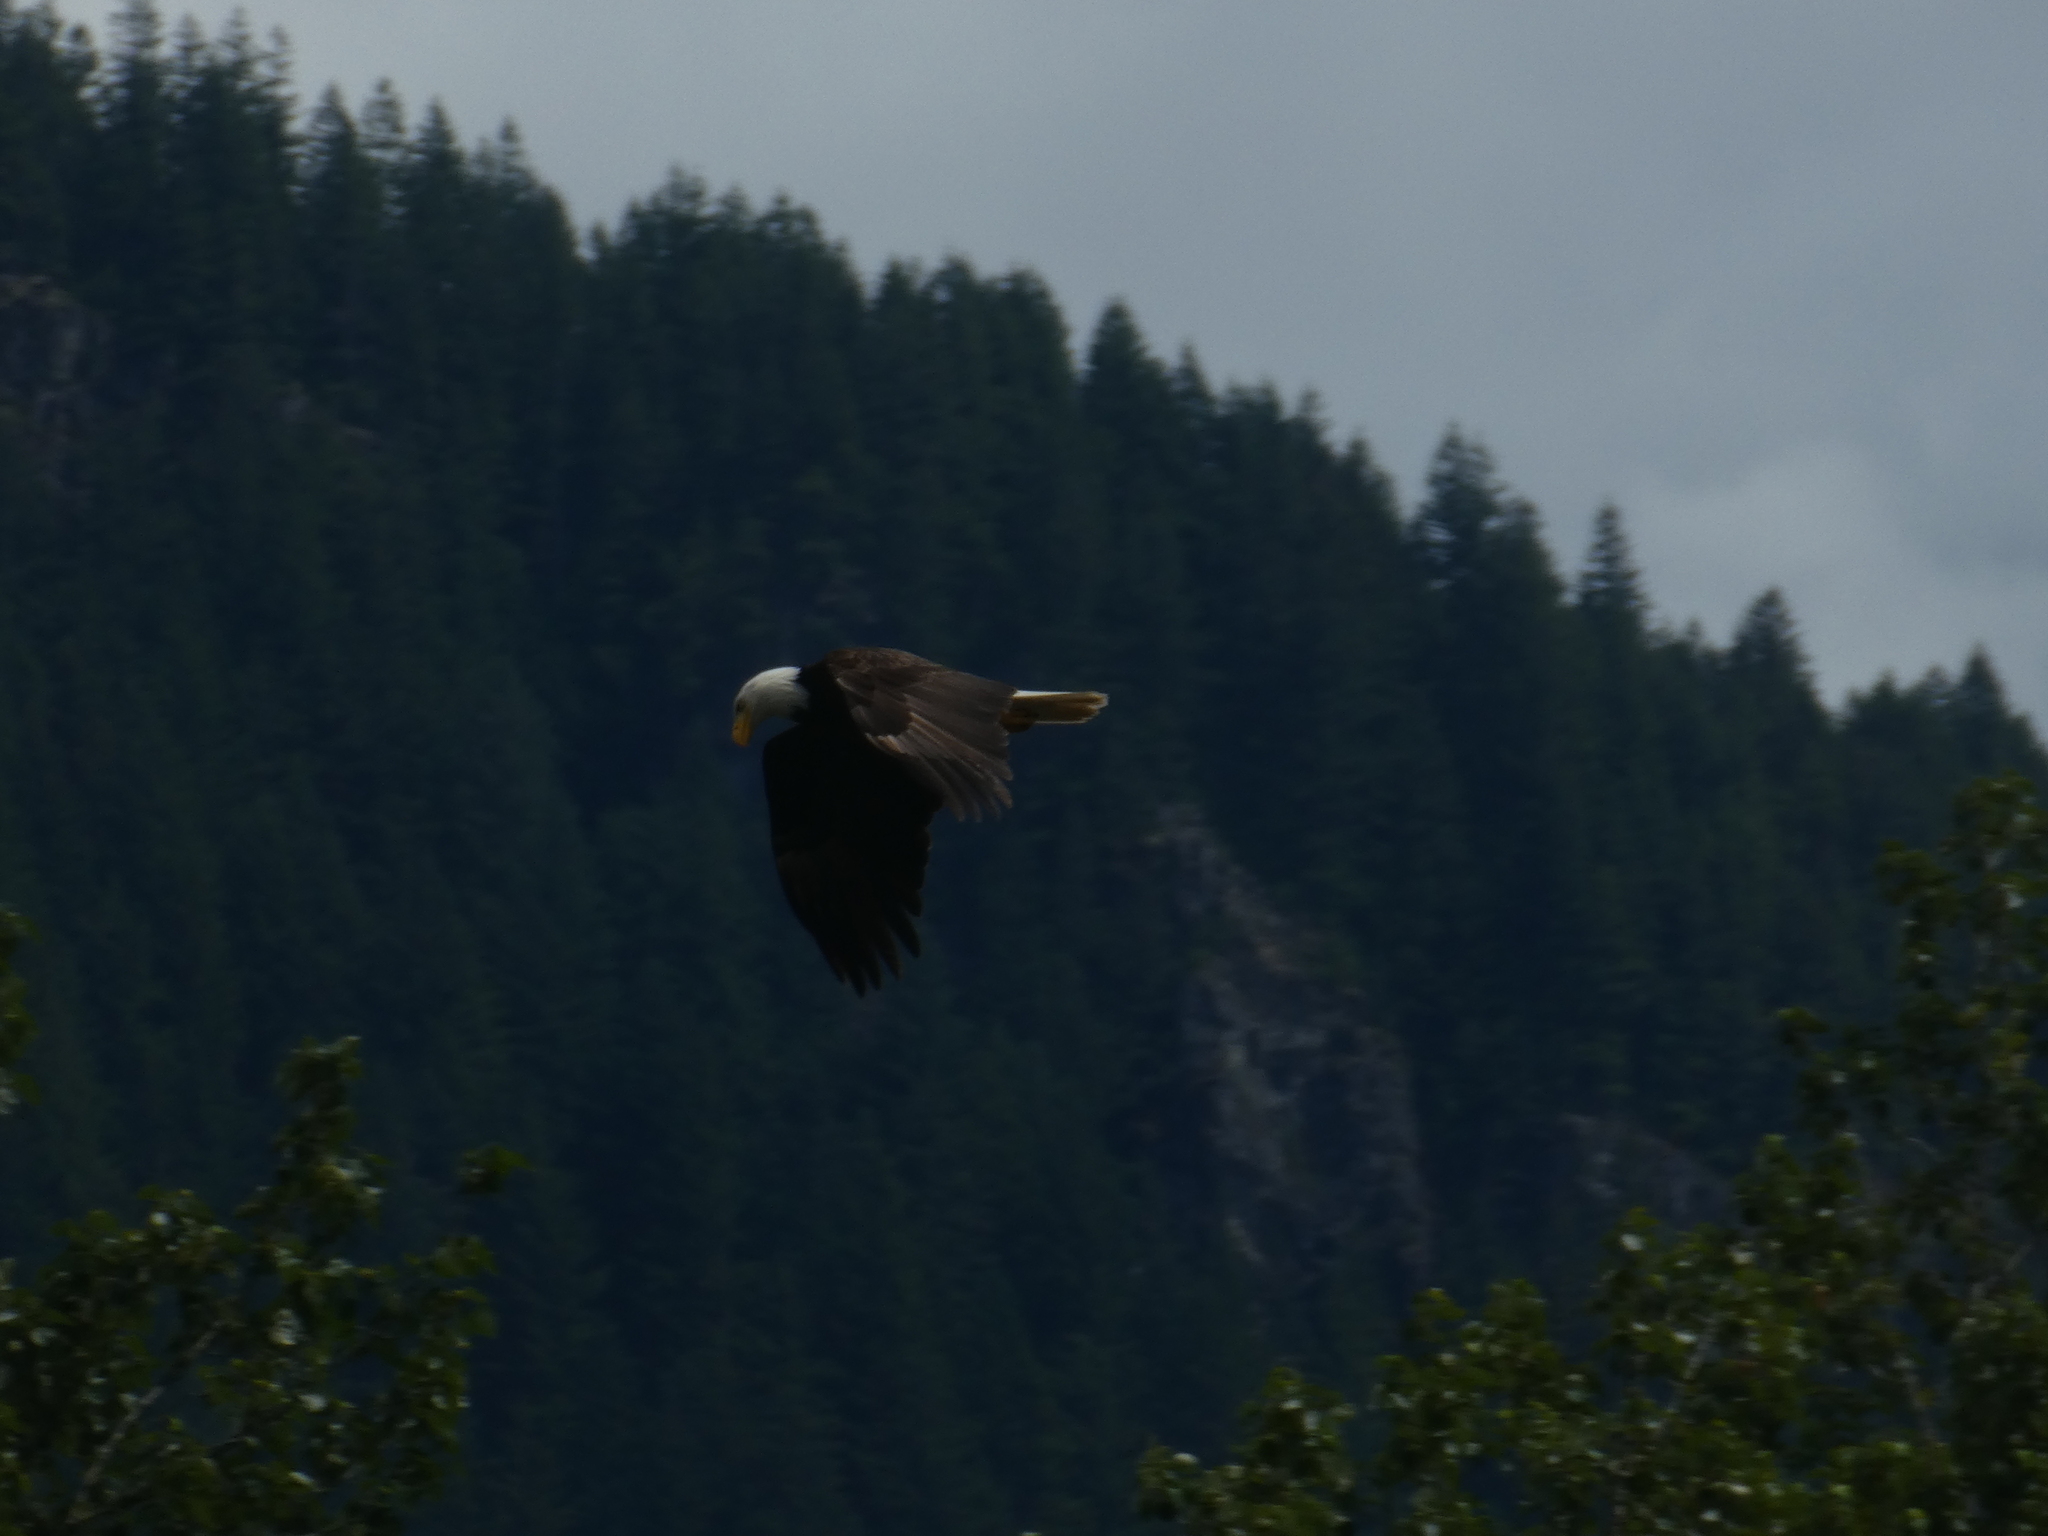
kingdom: Animalia
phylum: Chordata
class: Aves
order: Accipitriformes
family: Accipitridae
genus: Haliaeetus
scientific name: Haliaeetus leucocephalus
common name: Bald eagle
